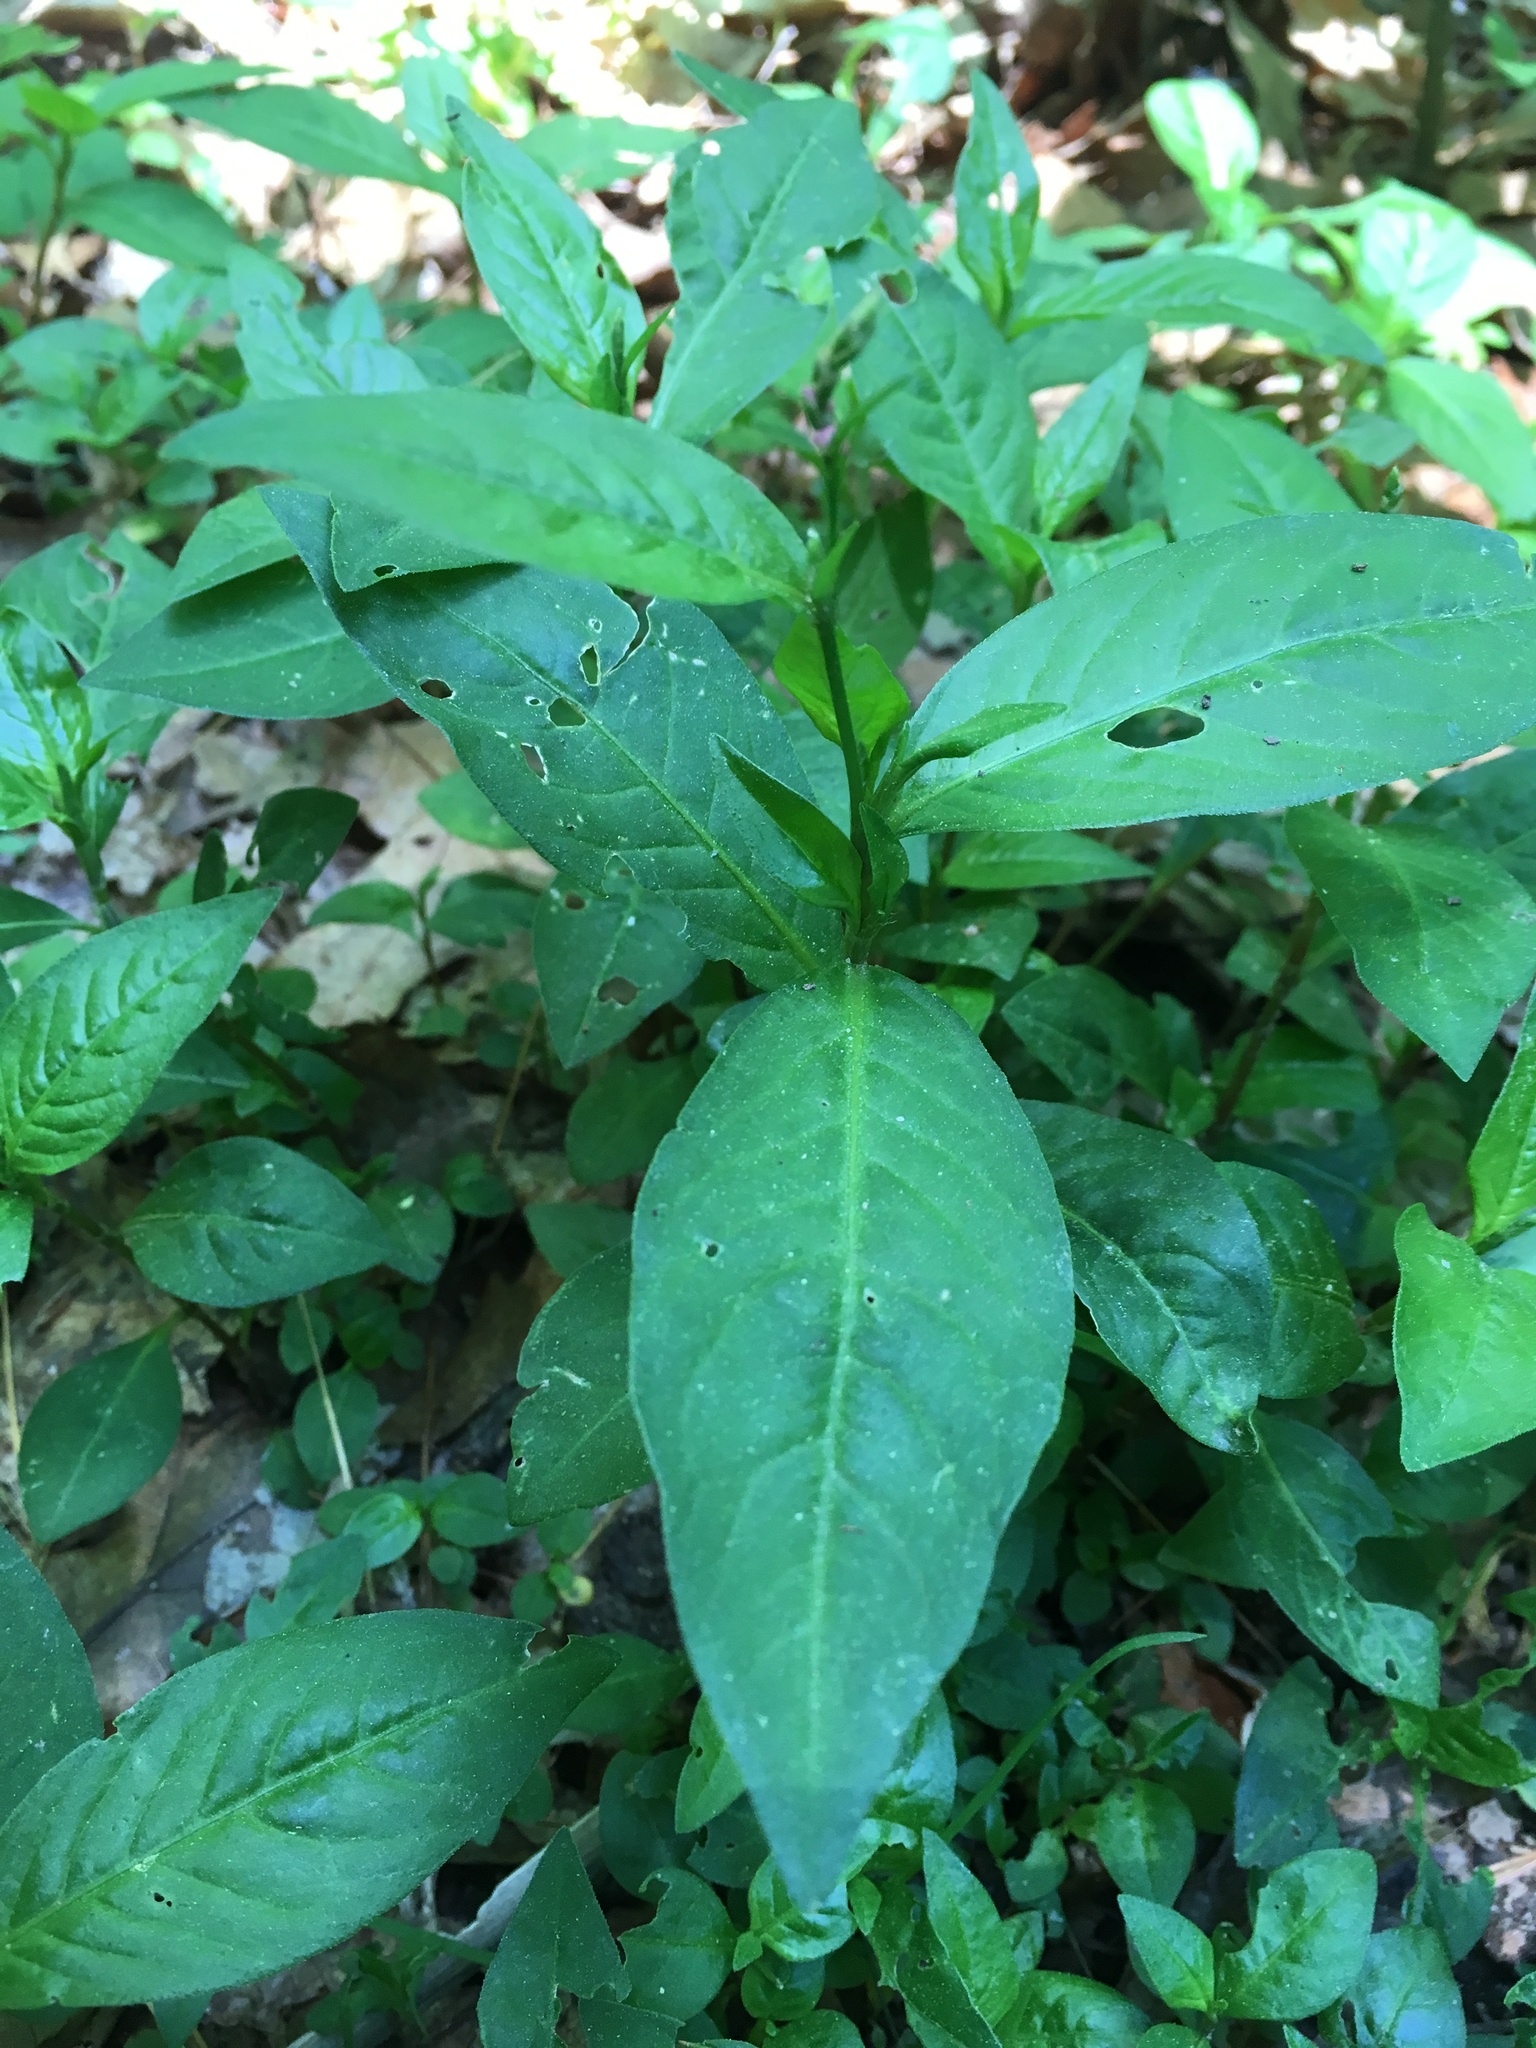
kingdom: Plantae
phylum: Tracheophyta
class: Magnoliopsida
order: Caryophyllales
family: Polygonaceae
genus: Persicaria
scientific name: Persicaria longiseta
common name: Bristly lady's-thumb
